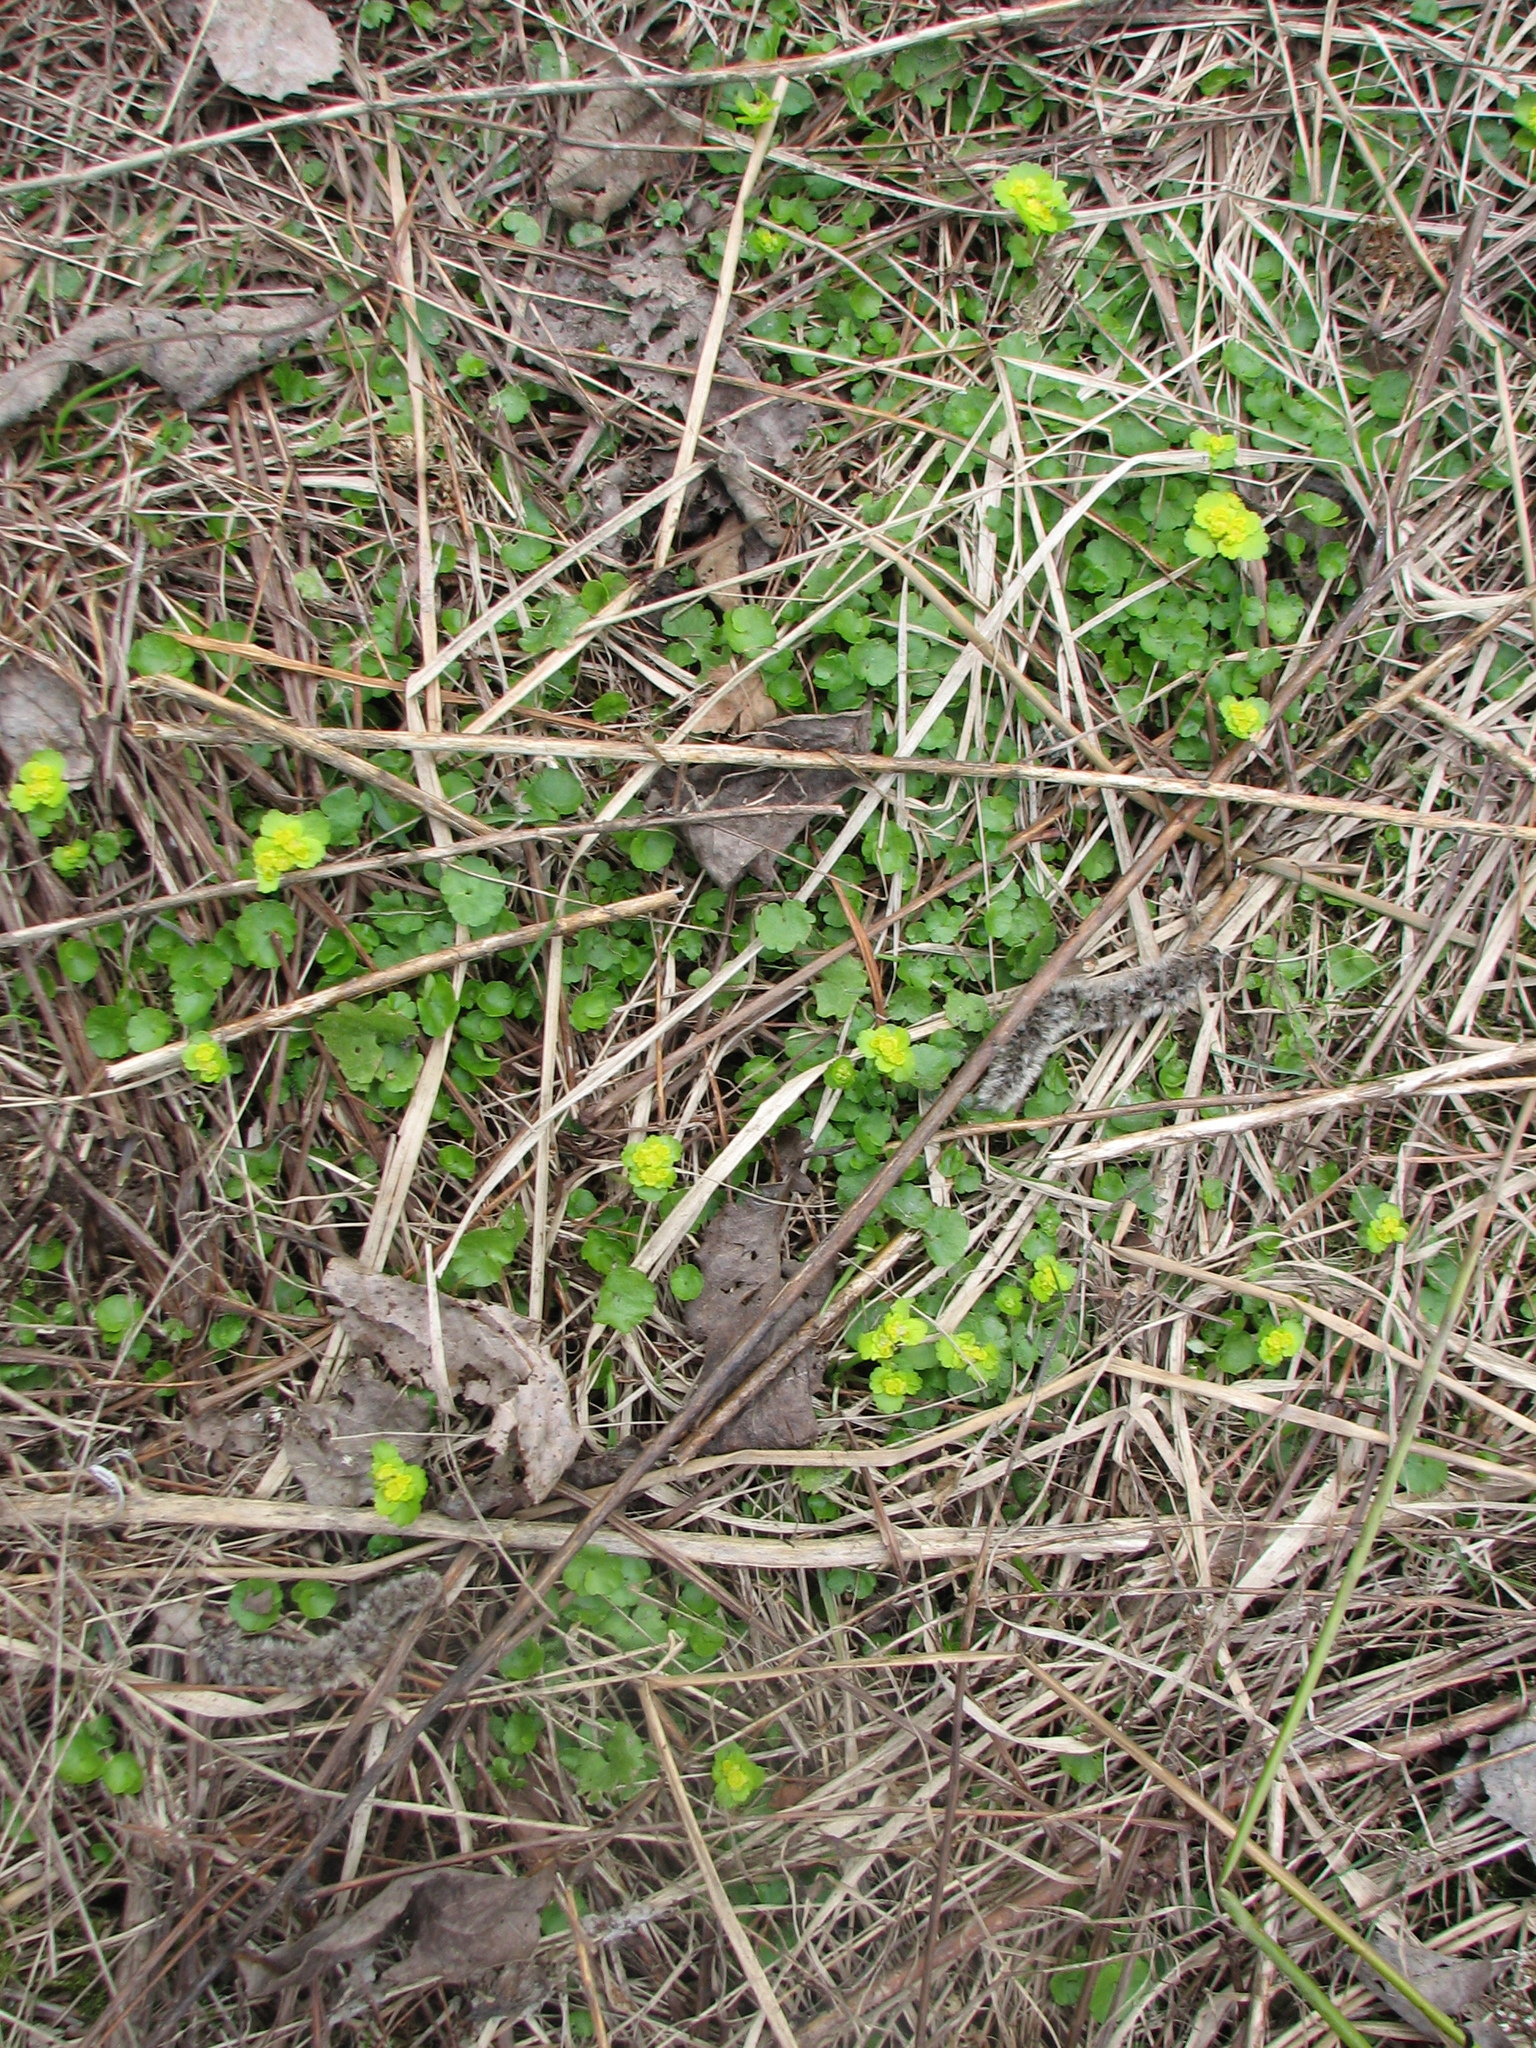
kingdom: Plantae
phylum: Tracheophyta
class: Magnoliopsida
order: Saxifragales
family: Saxifragaceae
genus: Chrysosplenium
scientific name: Chrysosplenium alternifolium
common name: Alternate-leaved golden-saxifrage
